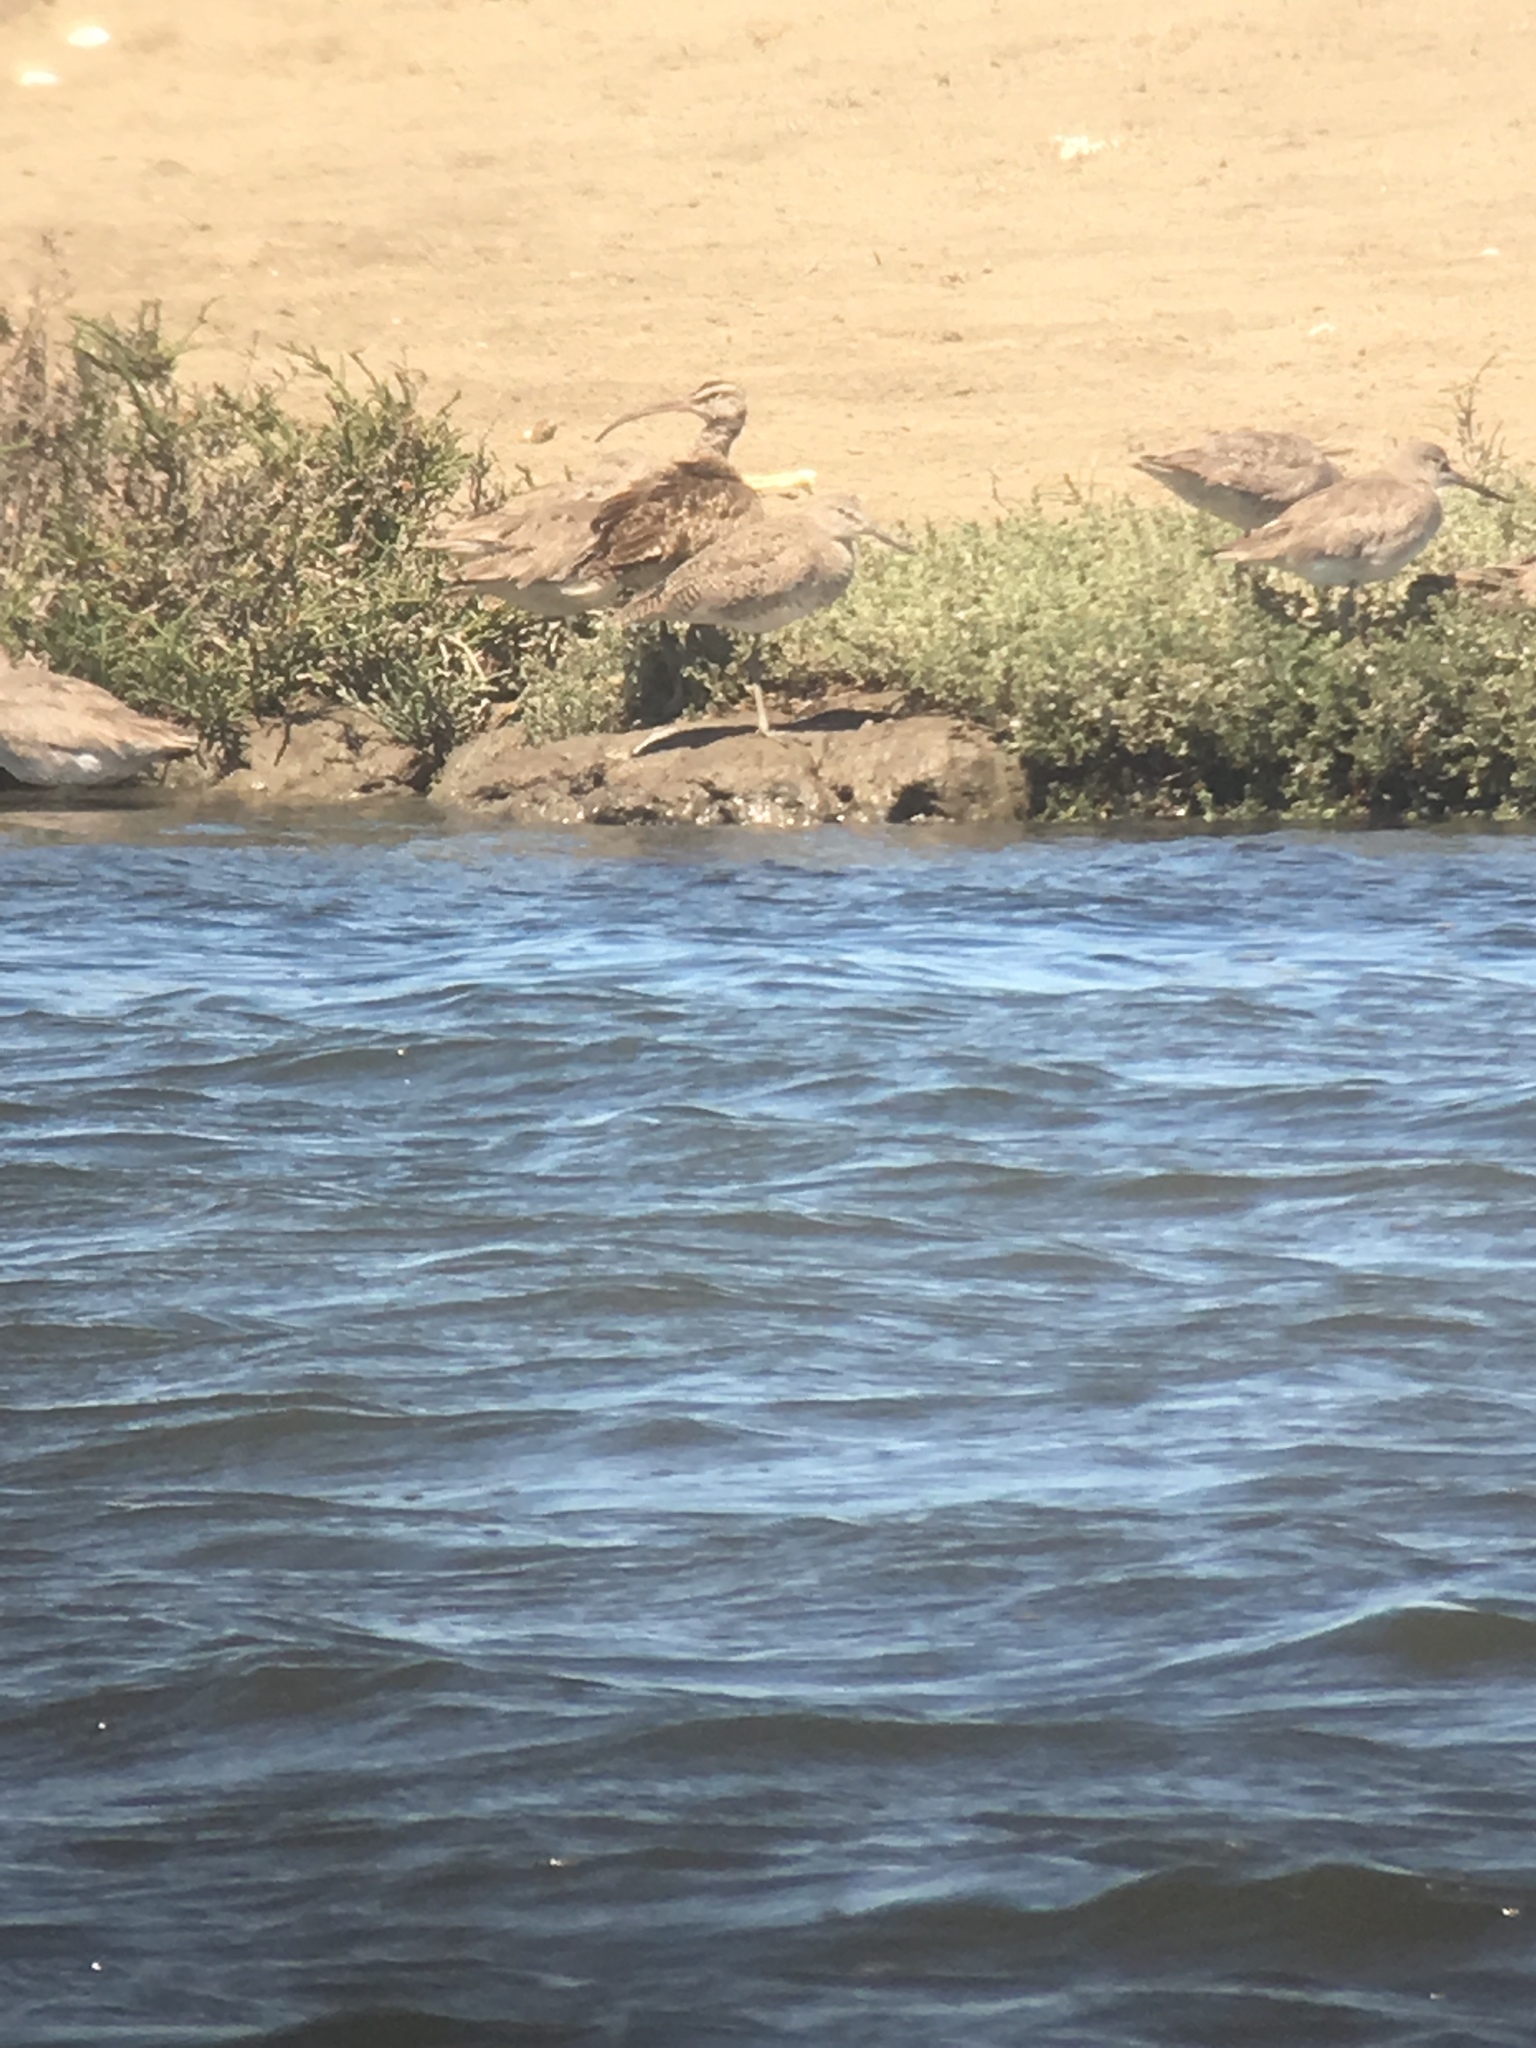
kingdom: Animalia
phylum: Chordata
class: Aves
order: Charadriiformes
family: Scolopacidae
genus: Numenius
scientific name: Numenius phaeopus
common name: Whimbrel
